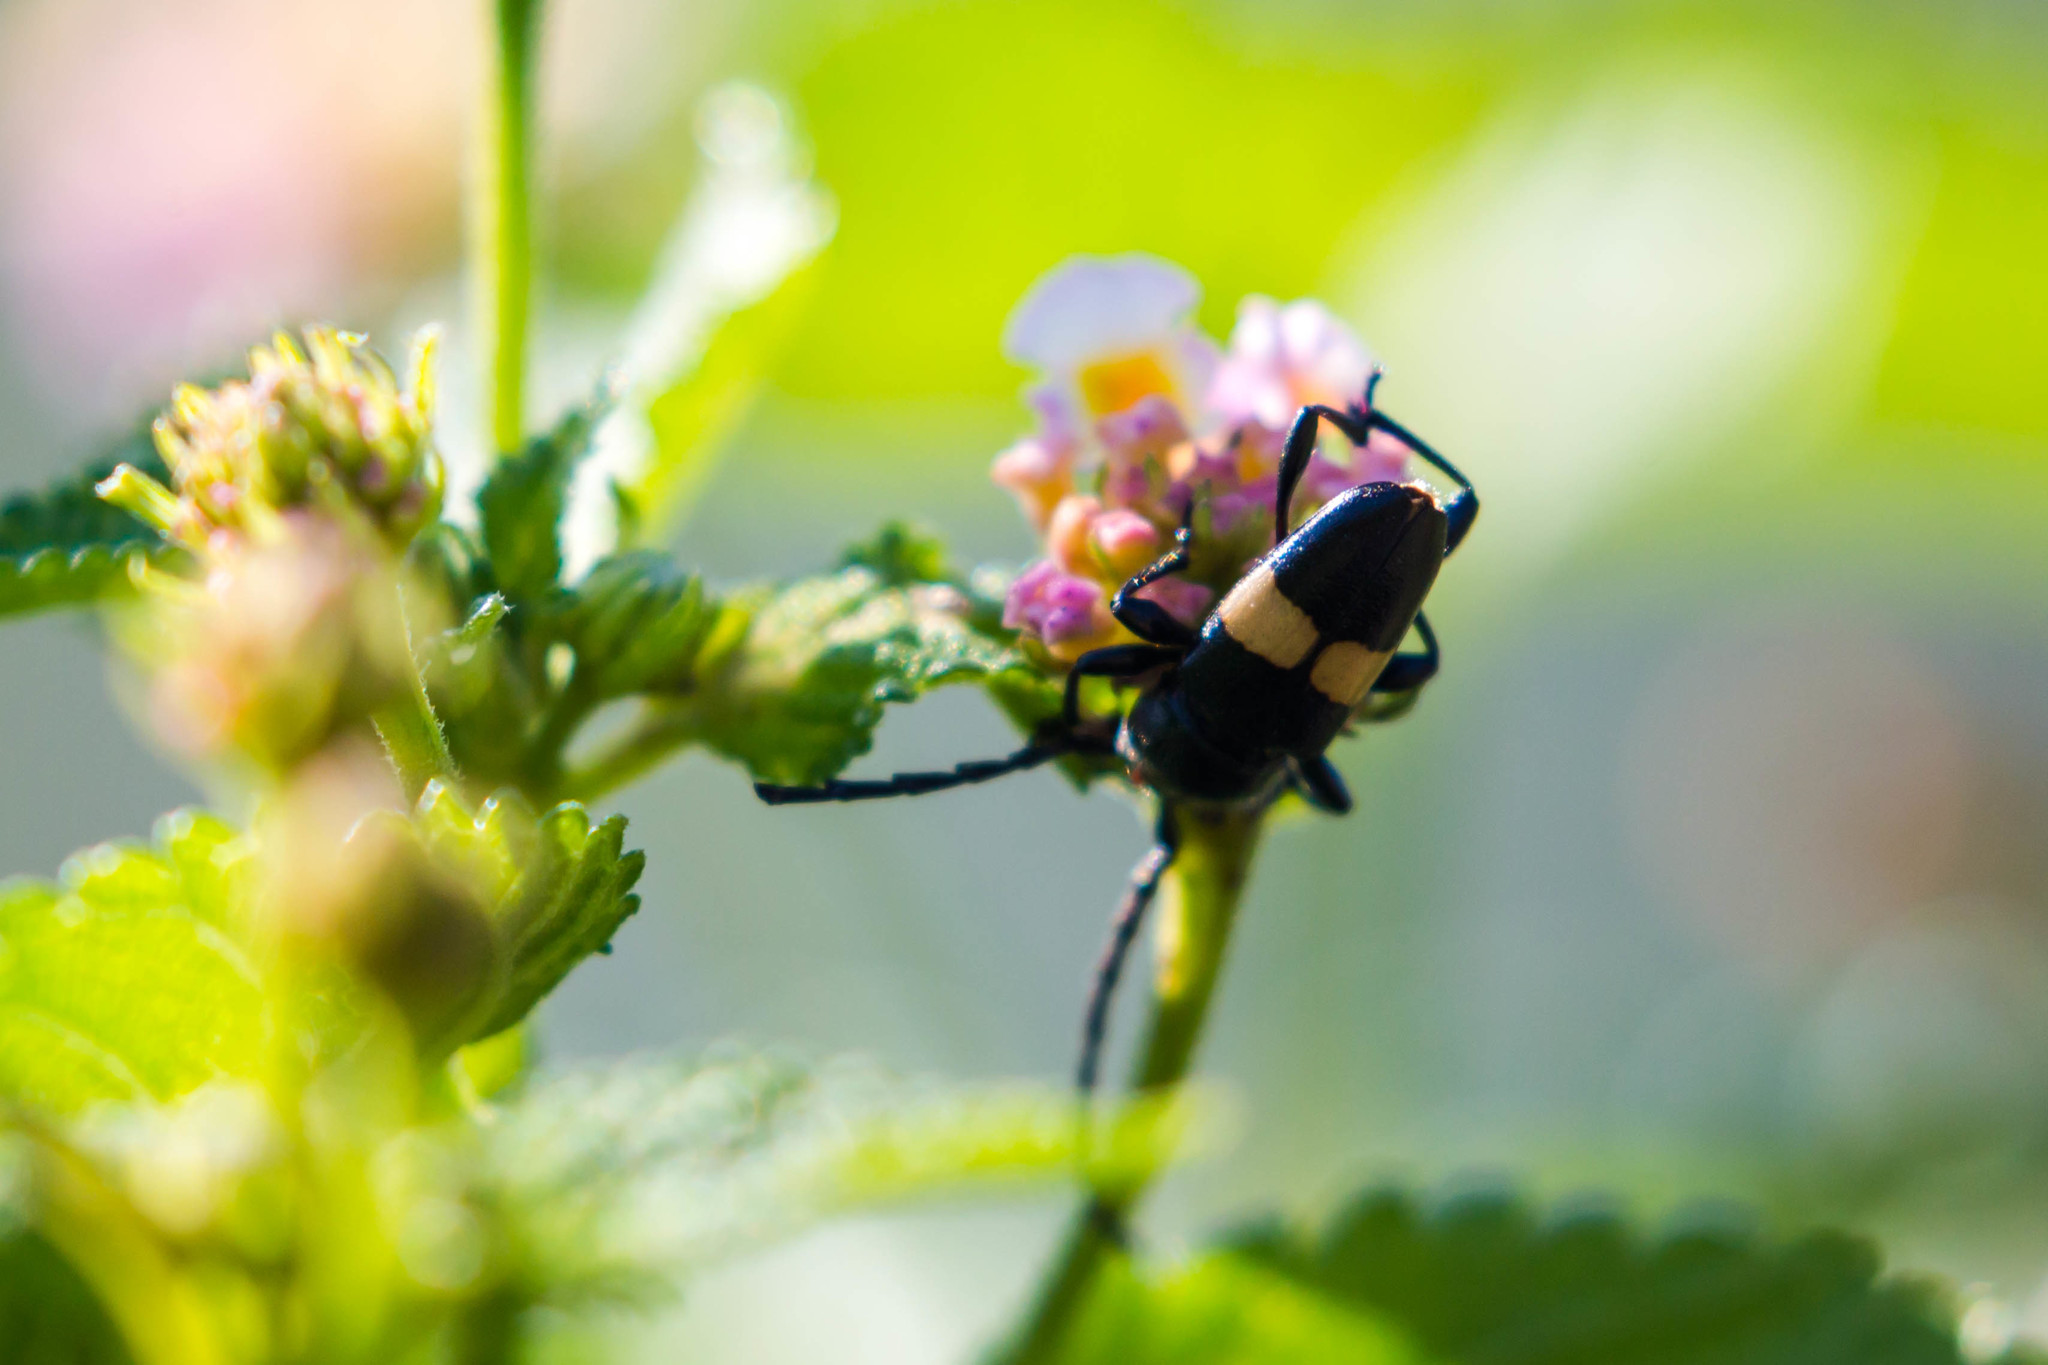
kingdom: Animalia
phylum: Arthropoda
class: Insecta
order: Coleoptera
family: Cerambycidae
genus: Lissonotus
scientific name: Lissonotus flavocinctus
